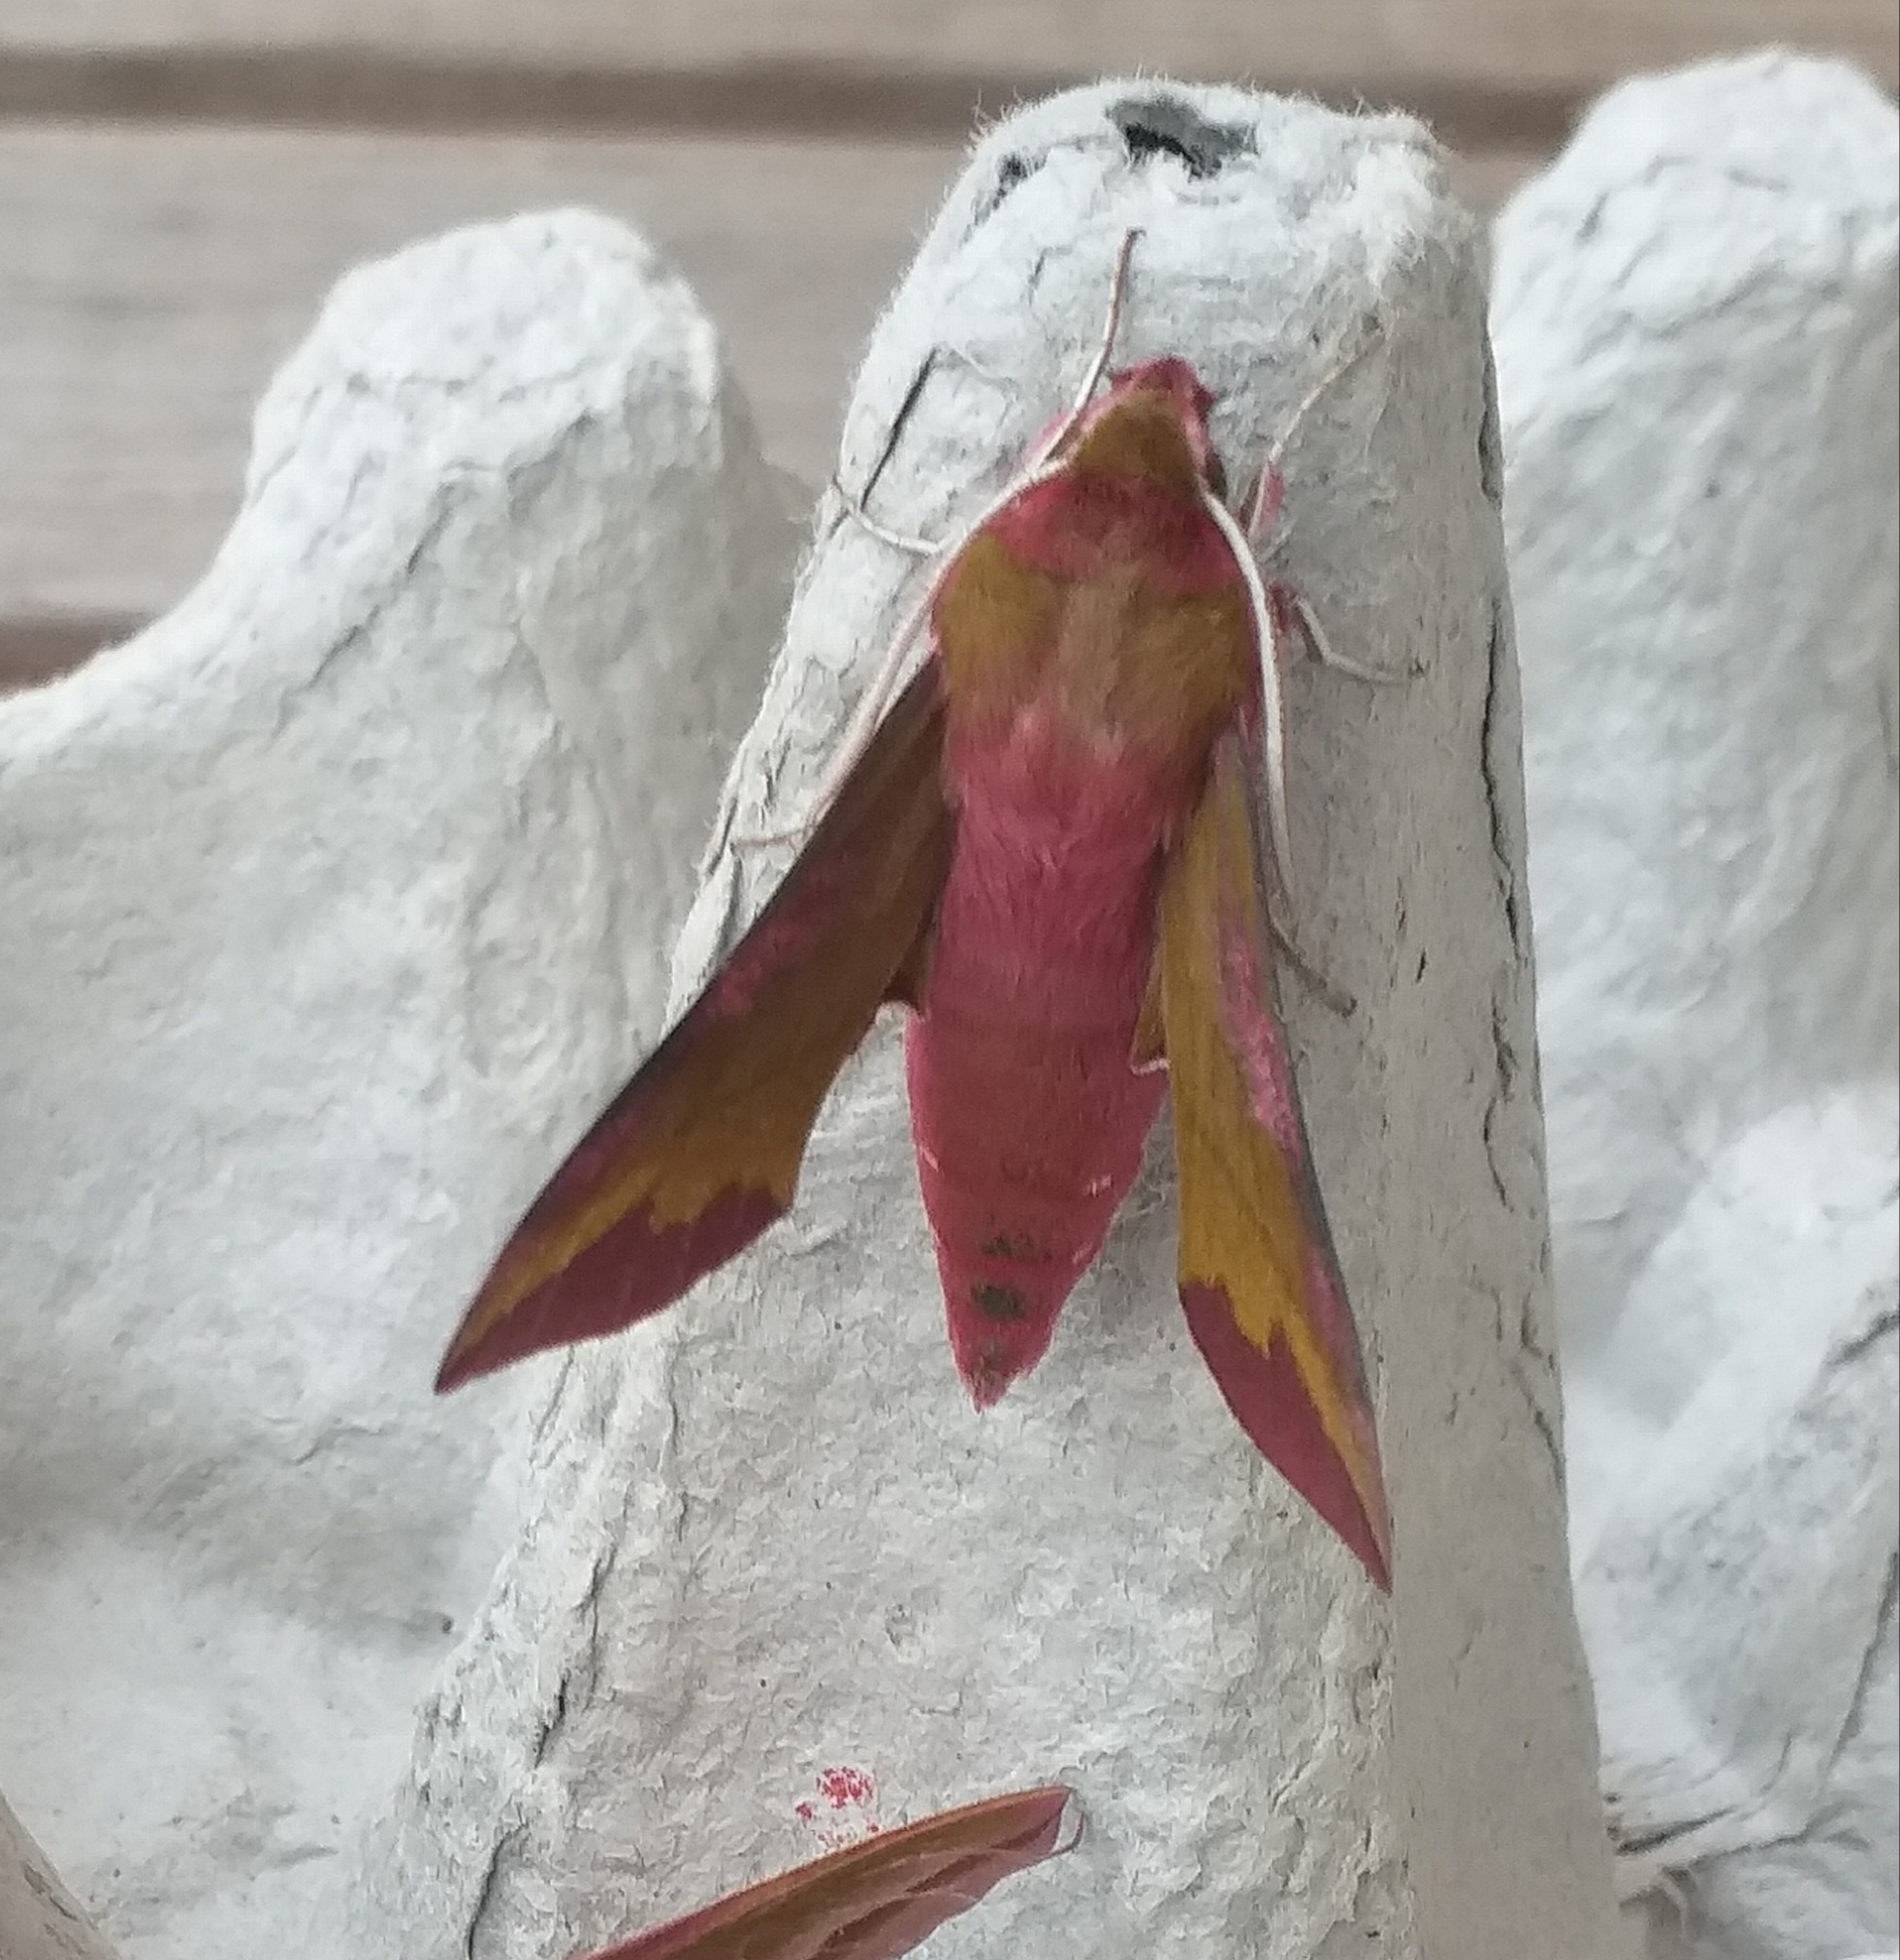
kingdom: Animalia
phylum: Arthropoda
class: Insecta
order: Lepidoptera
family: Sphingidae
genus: Deilephila
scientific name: Deilephila porcellus
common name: Small elephant hawk-moth
